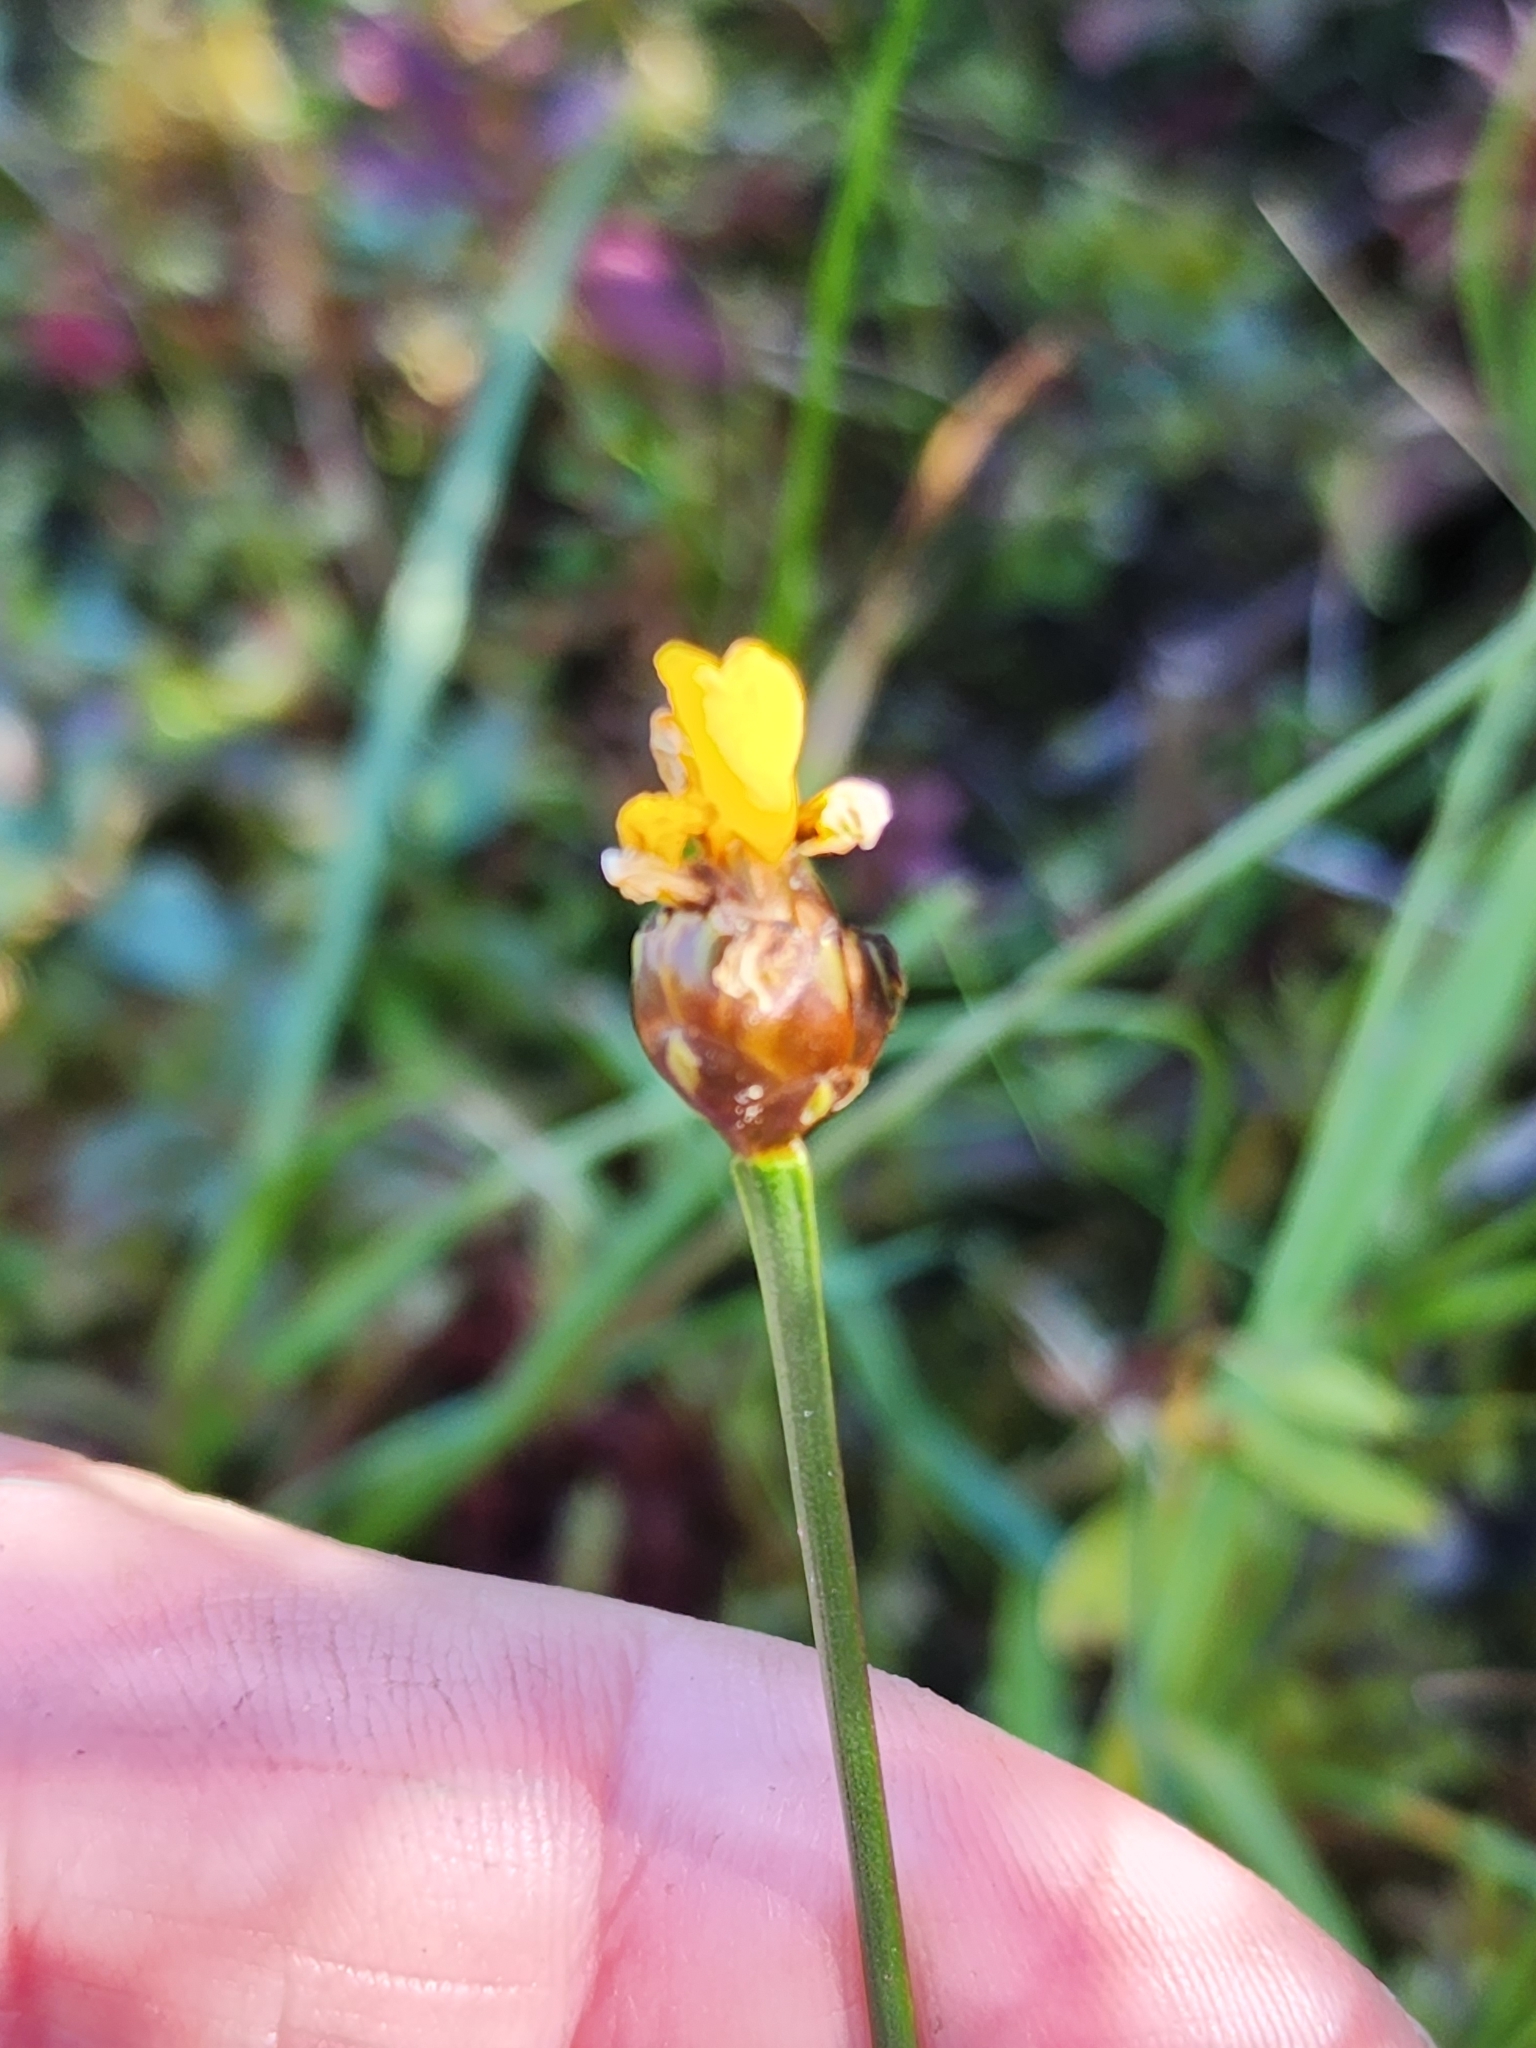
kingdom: Plantae
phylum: Tracheophyta
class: Liliopsida
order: Poales
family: Xyridaceae
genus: Xyris
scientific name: Xyris montana
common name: Northern yellow-eyed-grass
